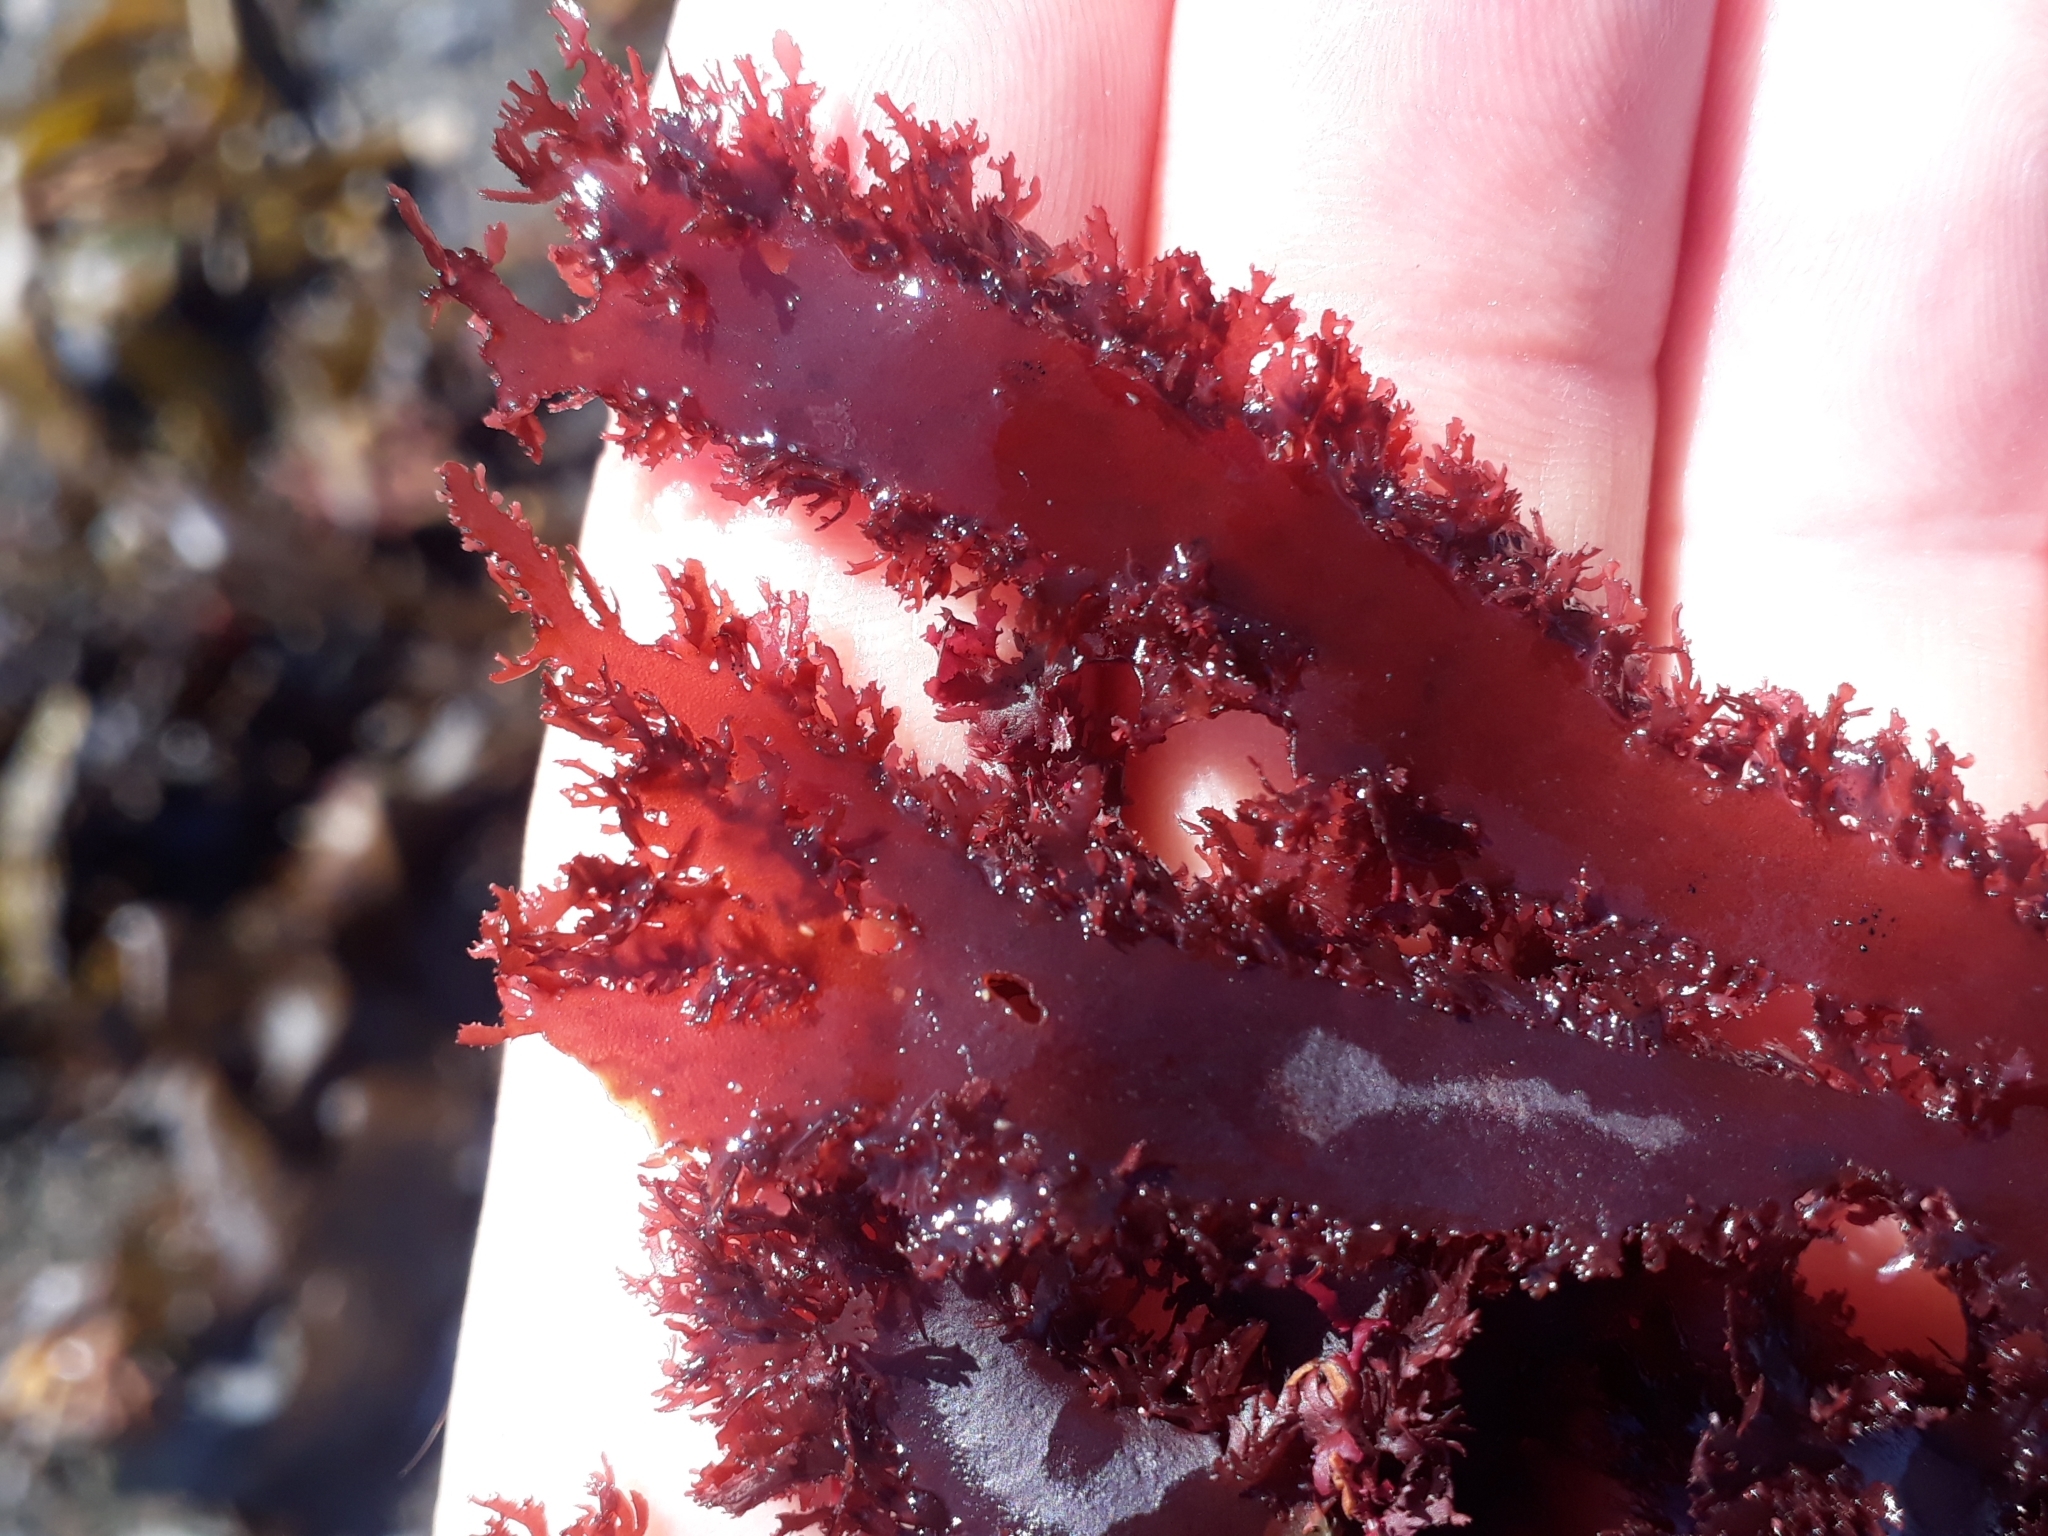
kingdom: Plantae
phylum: Rhodophyta
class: Florideophyceae
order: Gigartinales
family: Kallymeniaceae
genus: Blastophyllis
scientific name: Blastophyllis calliblepharoides
